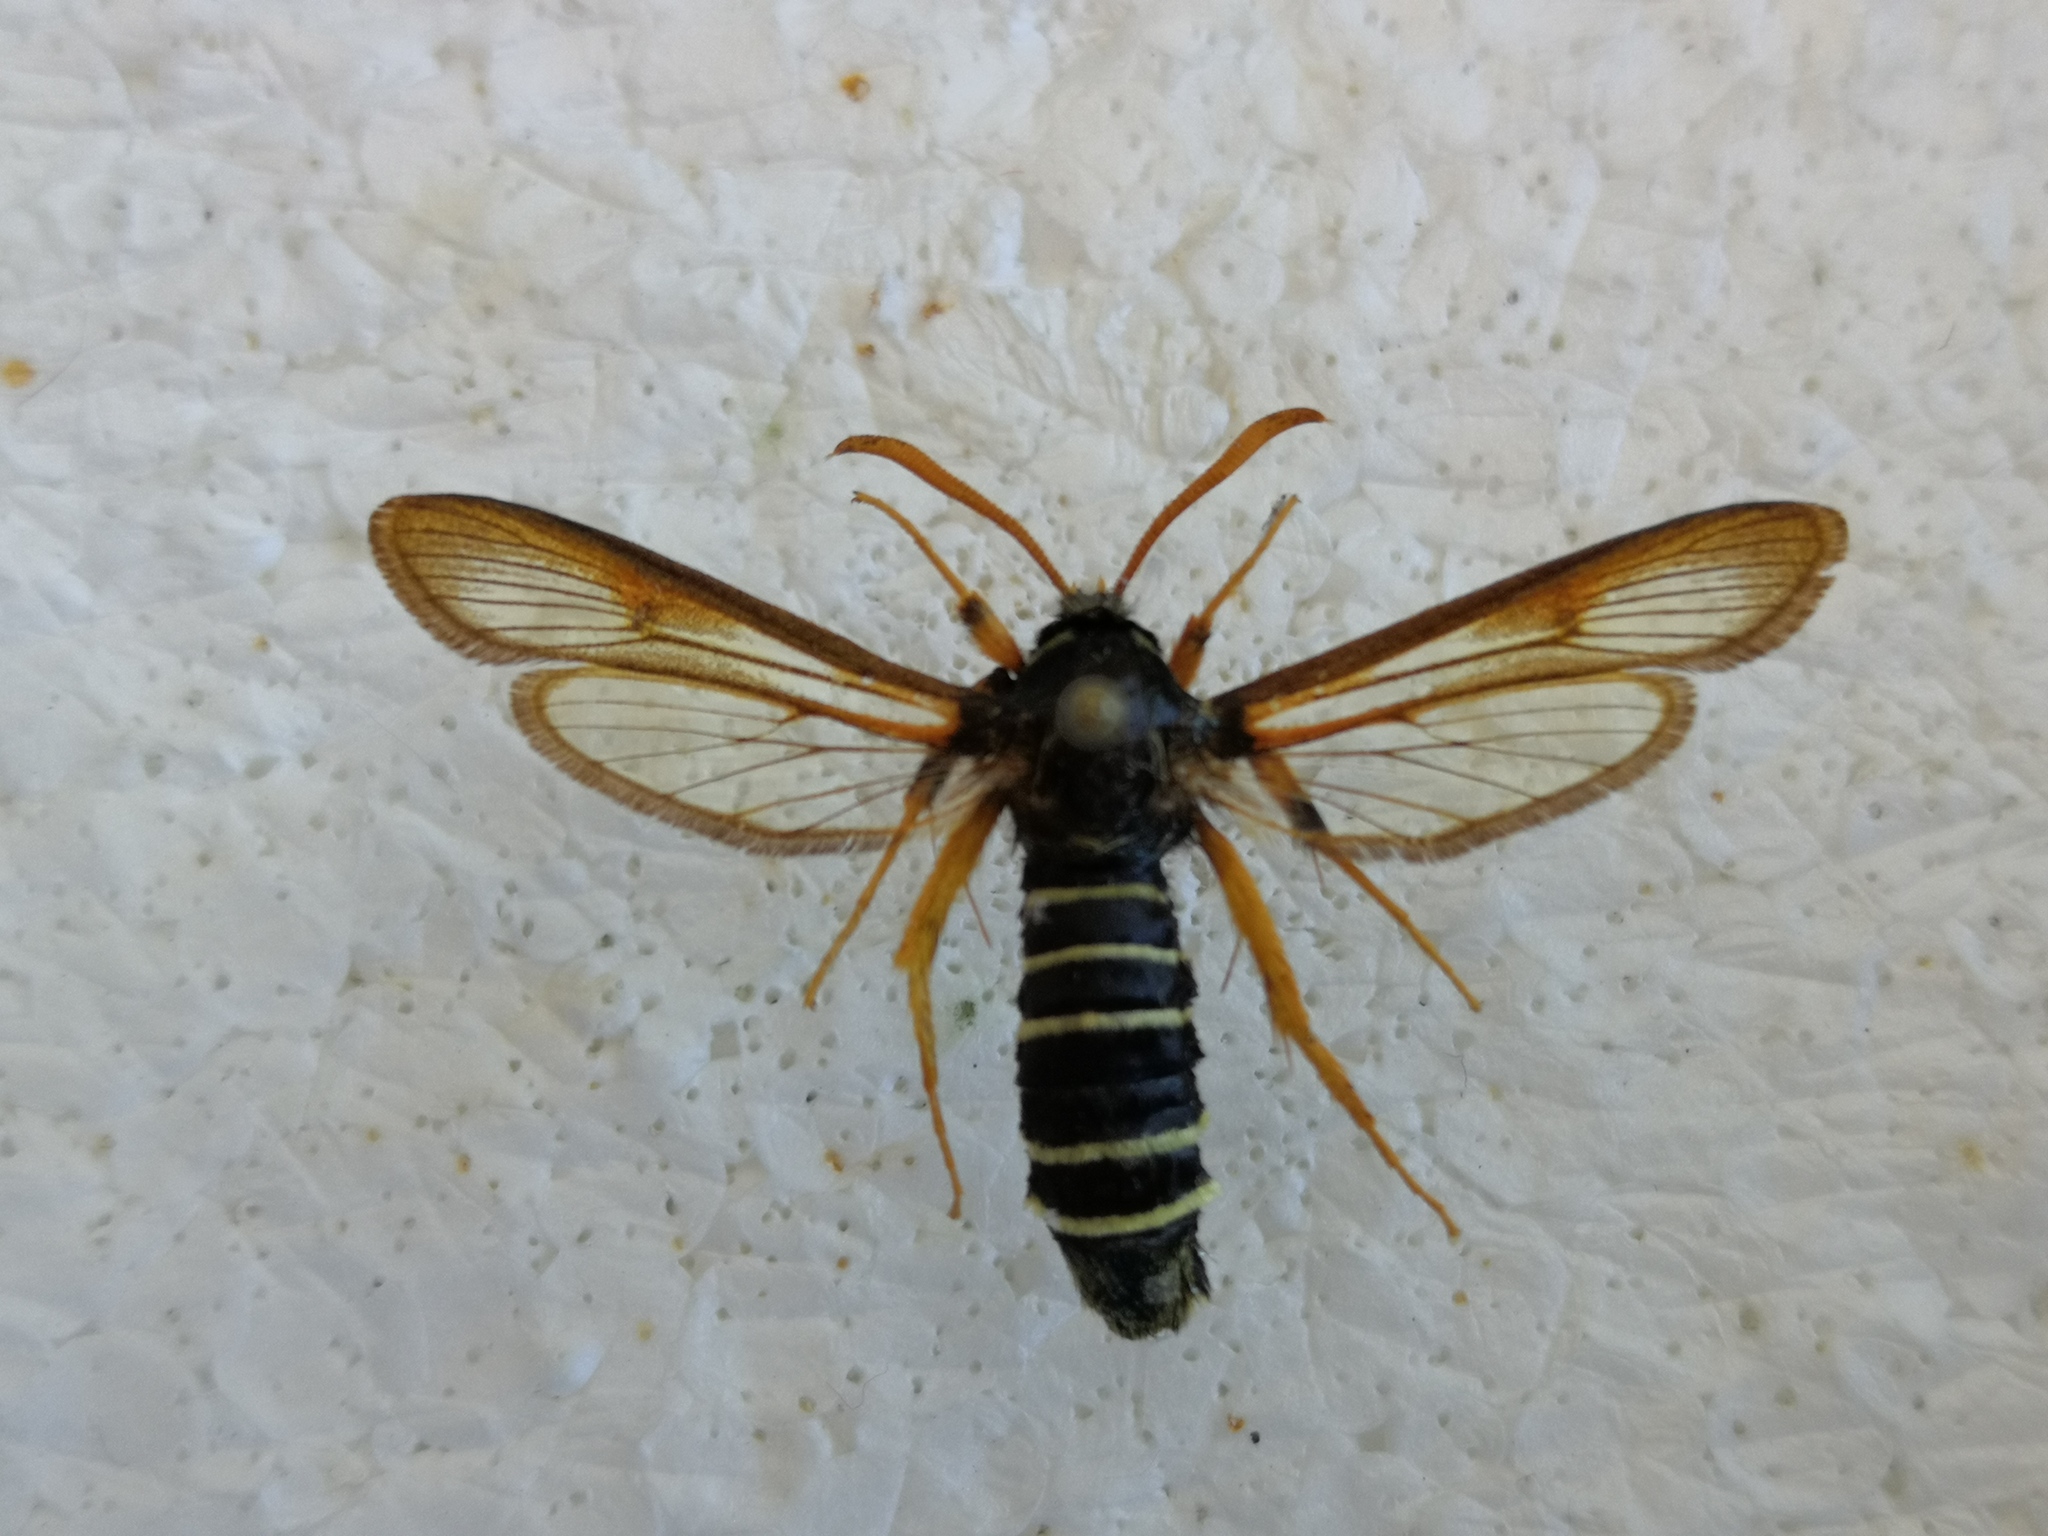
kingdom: Animalia
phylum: Arthropoda
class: Insecta
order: Lepidoptera
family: Sesiidae
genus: Eusphecia
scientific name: Eusphecia melanocephala
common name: Aspen clearwing
